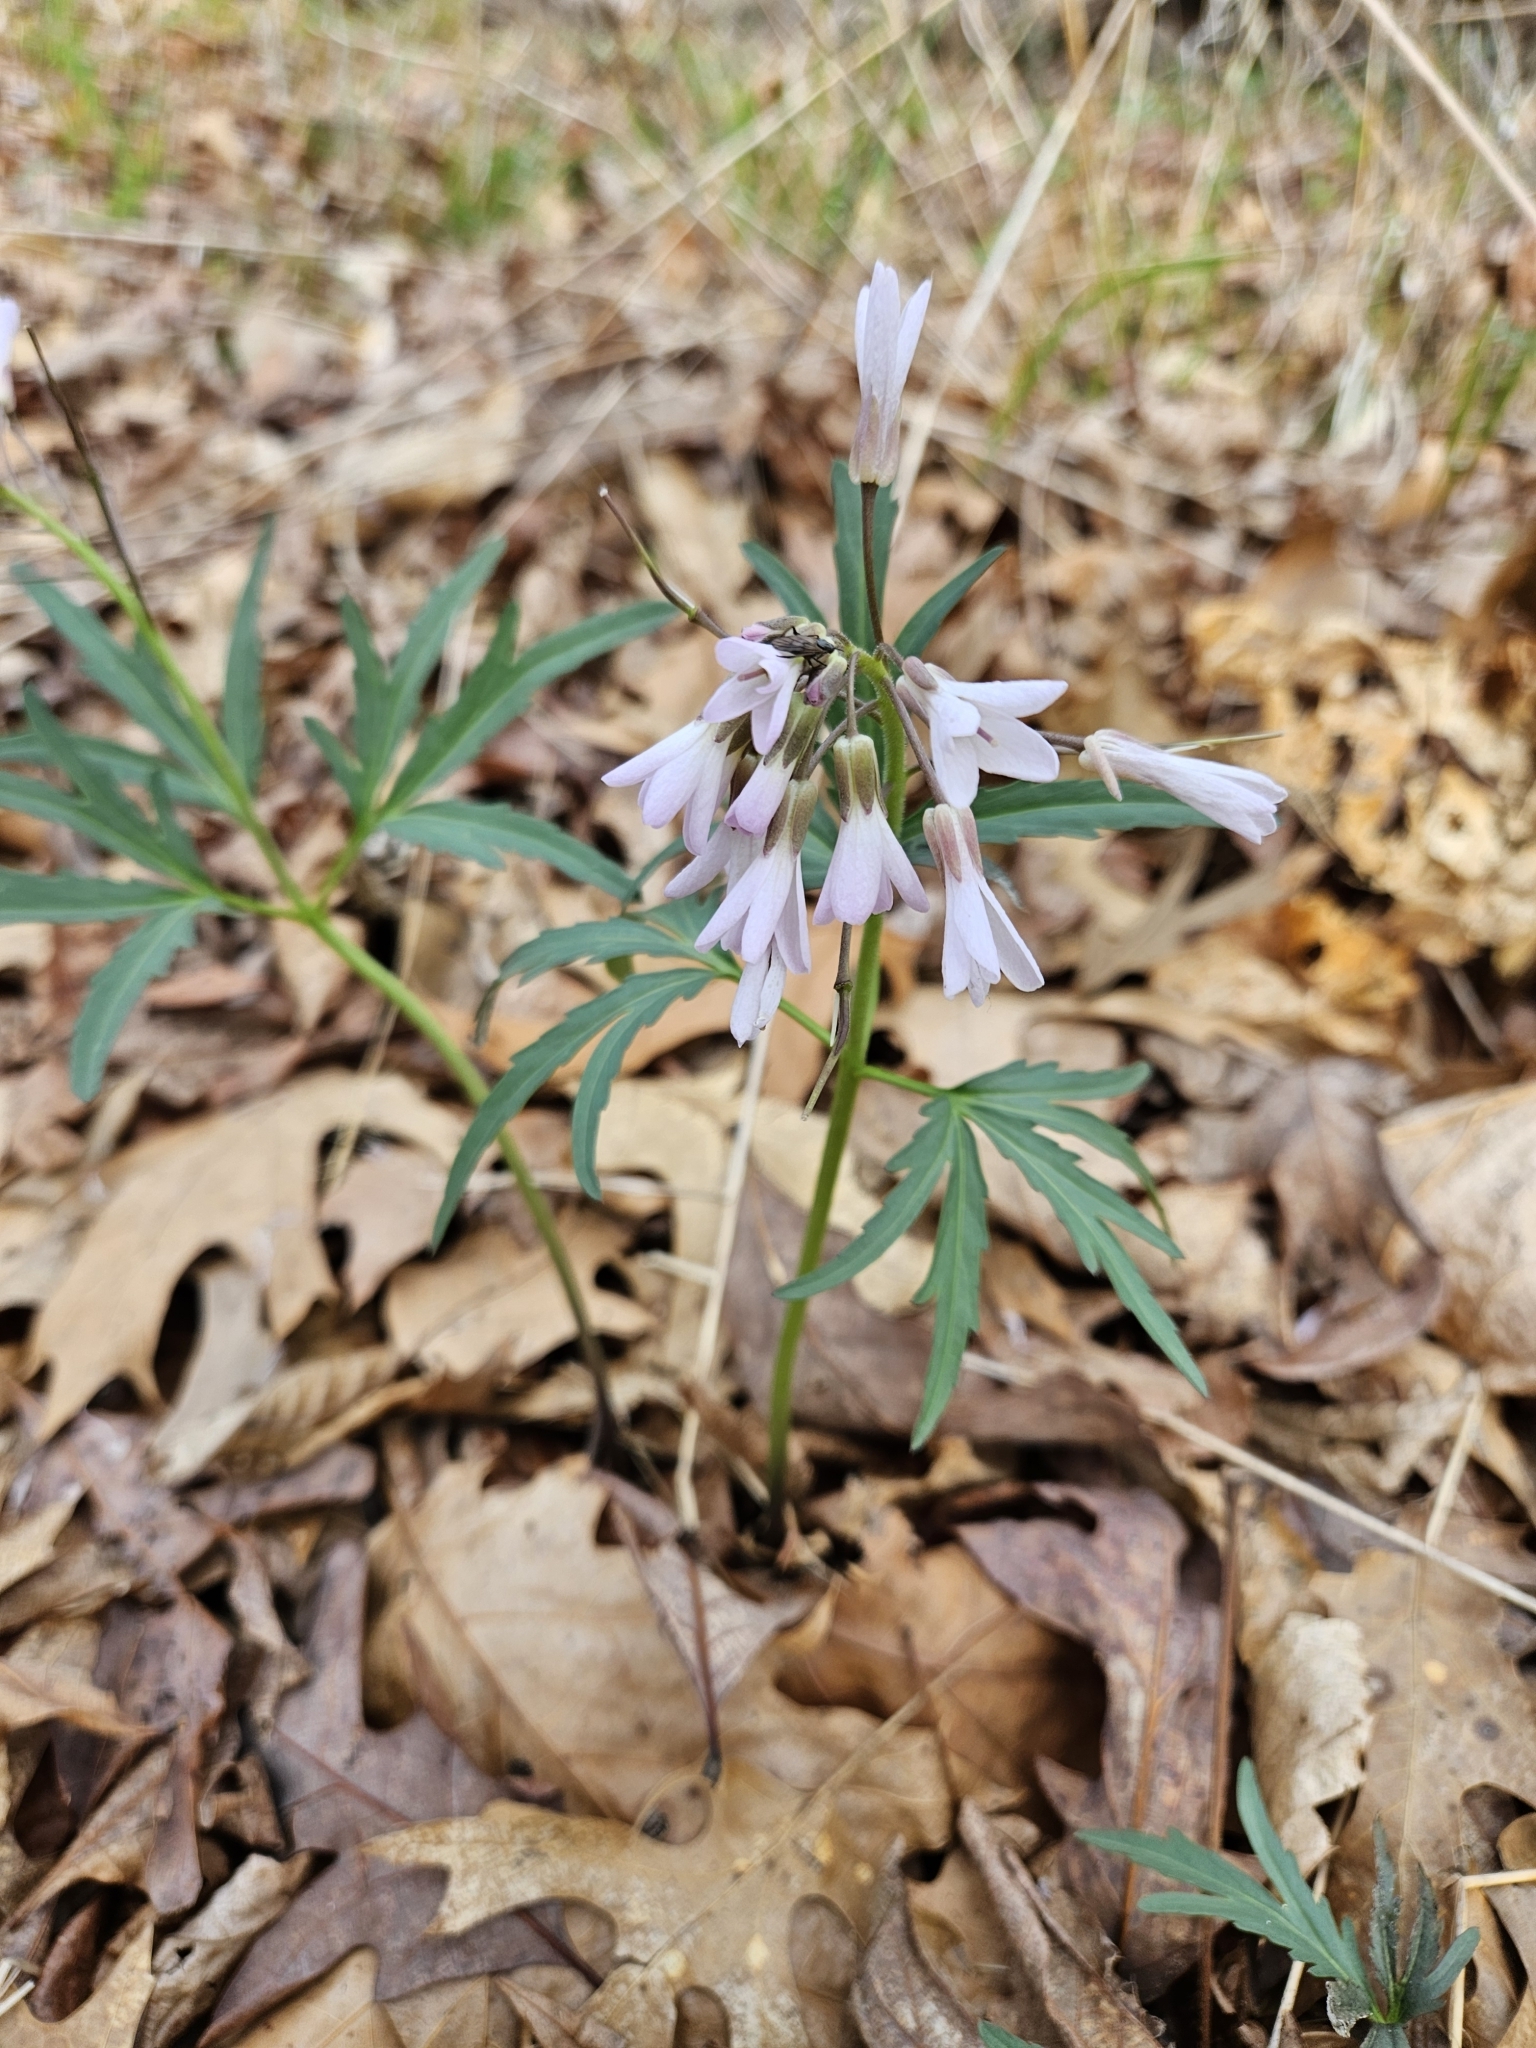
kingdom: Plantae
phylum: Tracheophyta
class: Magnoliopsida
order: Brassicales
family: Brassicaceae
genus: Cardamine
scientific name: Cardamine concatenata
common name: Cut-leaf toothcup
